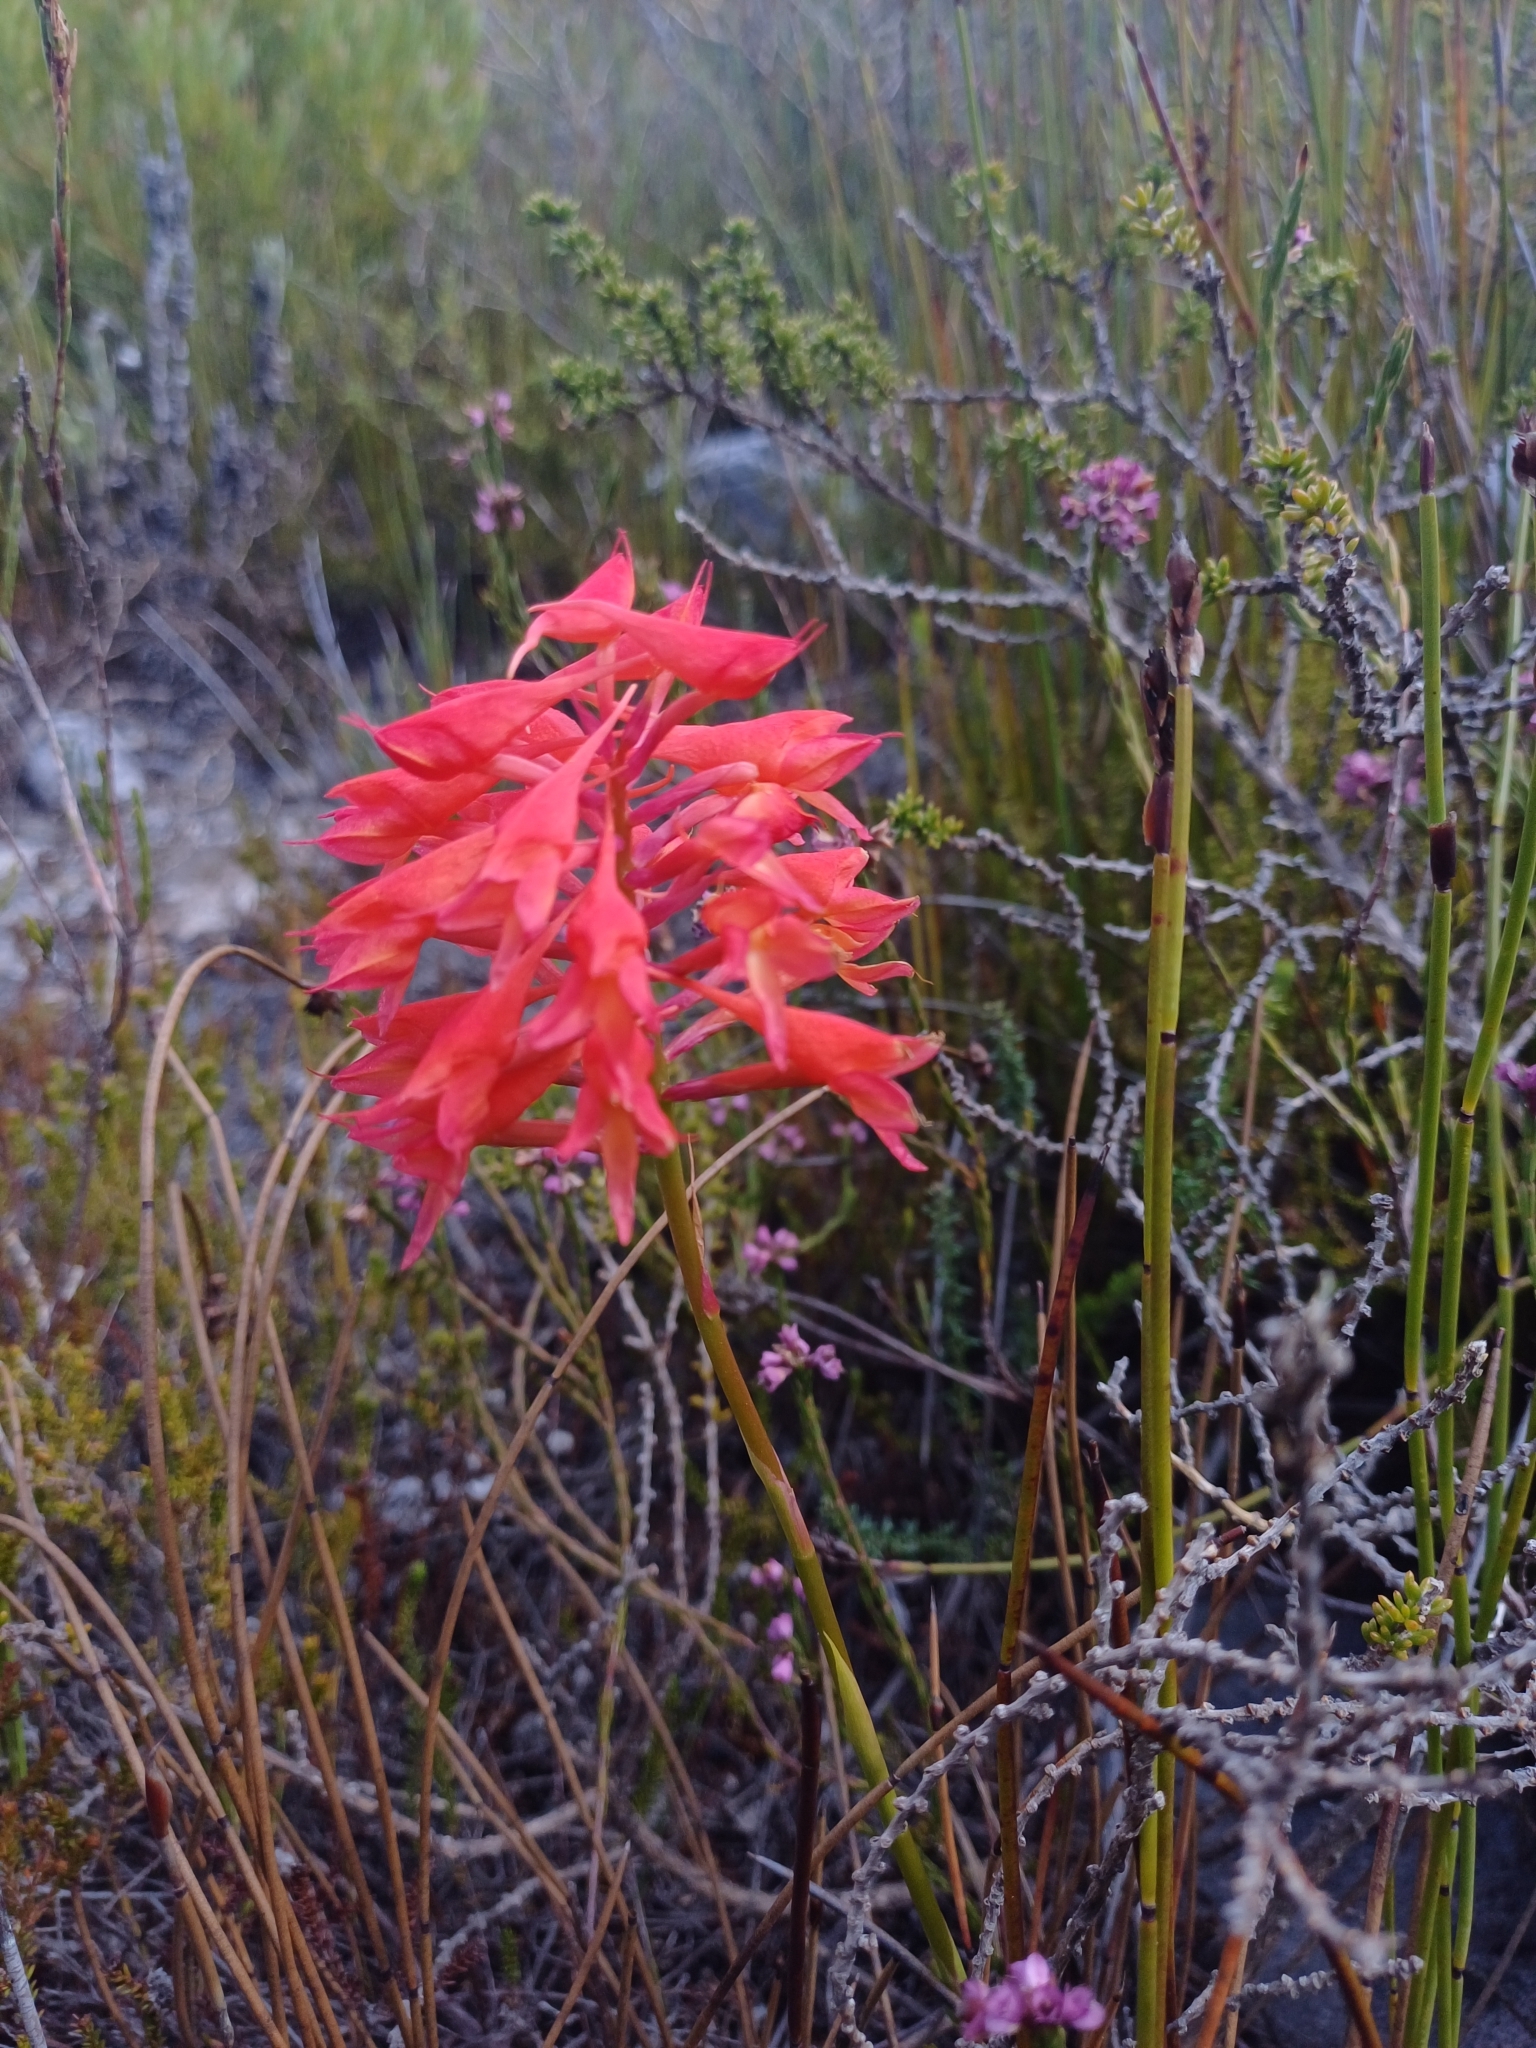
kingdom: Plantae
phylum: Tracheophyta
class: Liliopsida
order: Asparagales
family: Orchidaceae
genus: Disa
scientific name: Disa ferruginea
